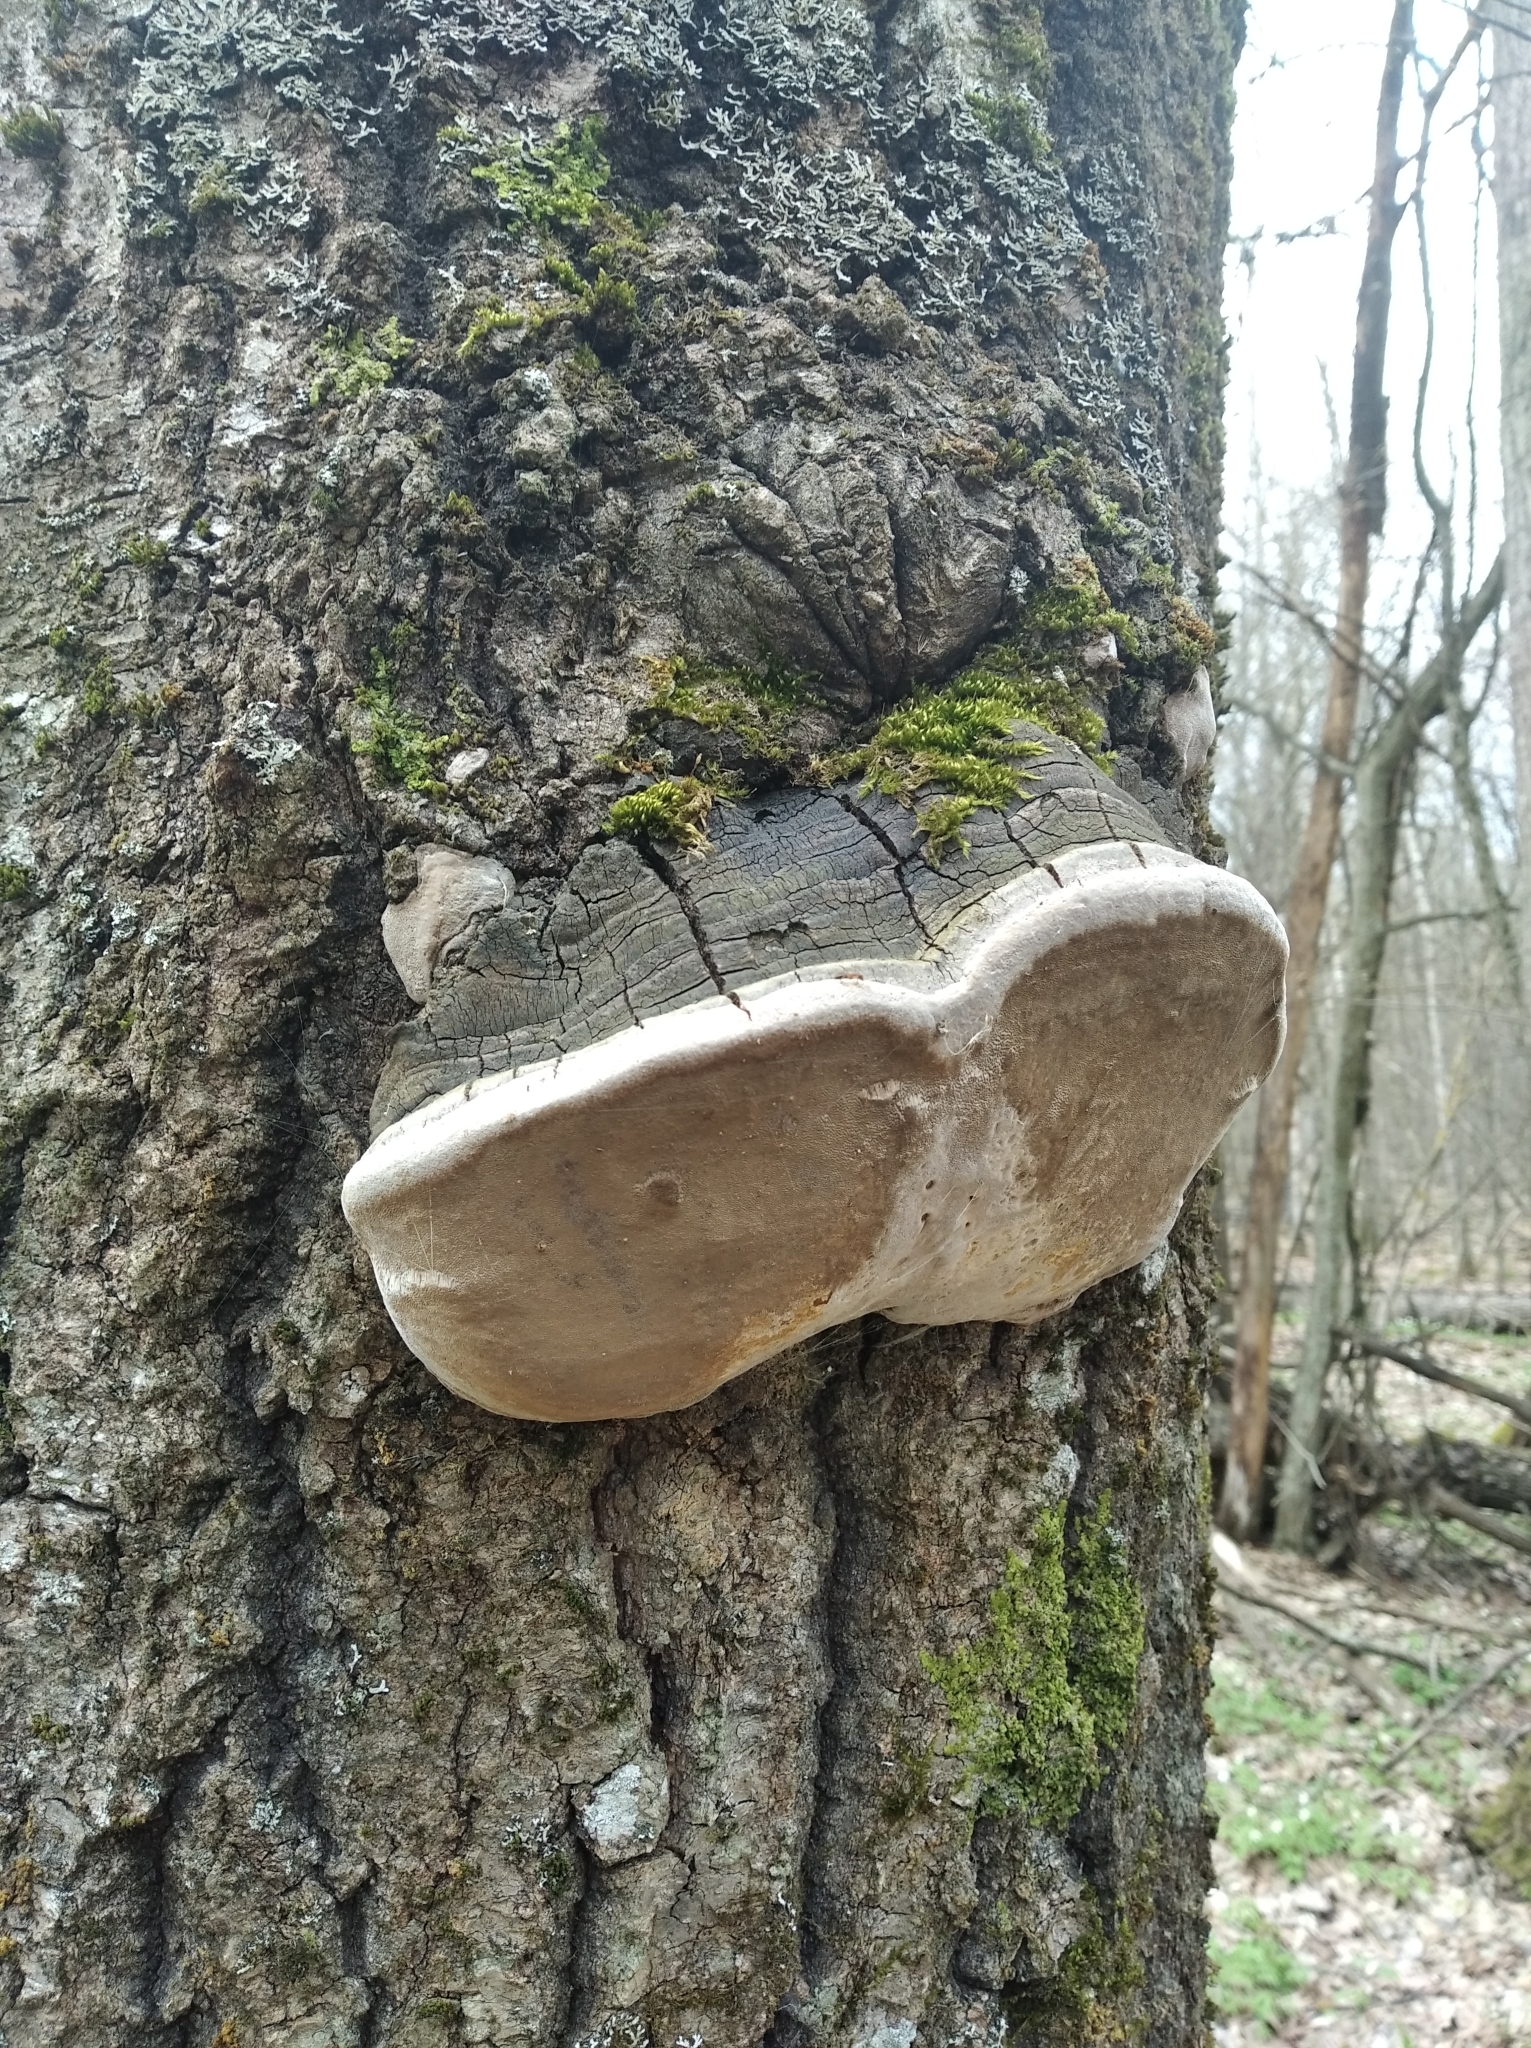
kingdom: Fungi
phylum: Basidiomycota
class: Agaricomycetes
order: Hymenochaetales
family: Hymenochaetaceae
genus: Phellinus
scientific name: Phellinus tremulae
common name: Aspen bracket
